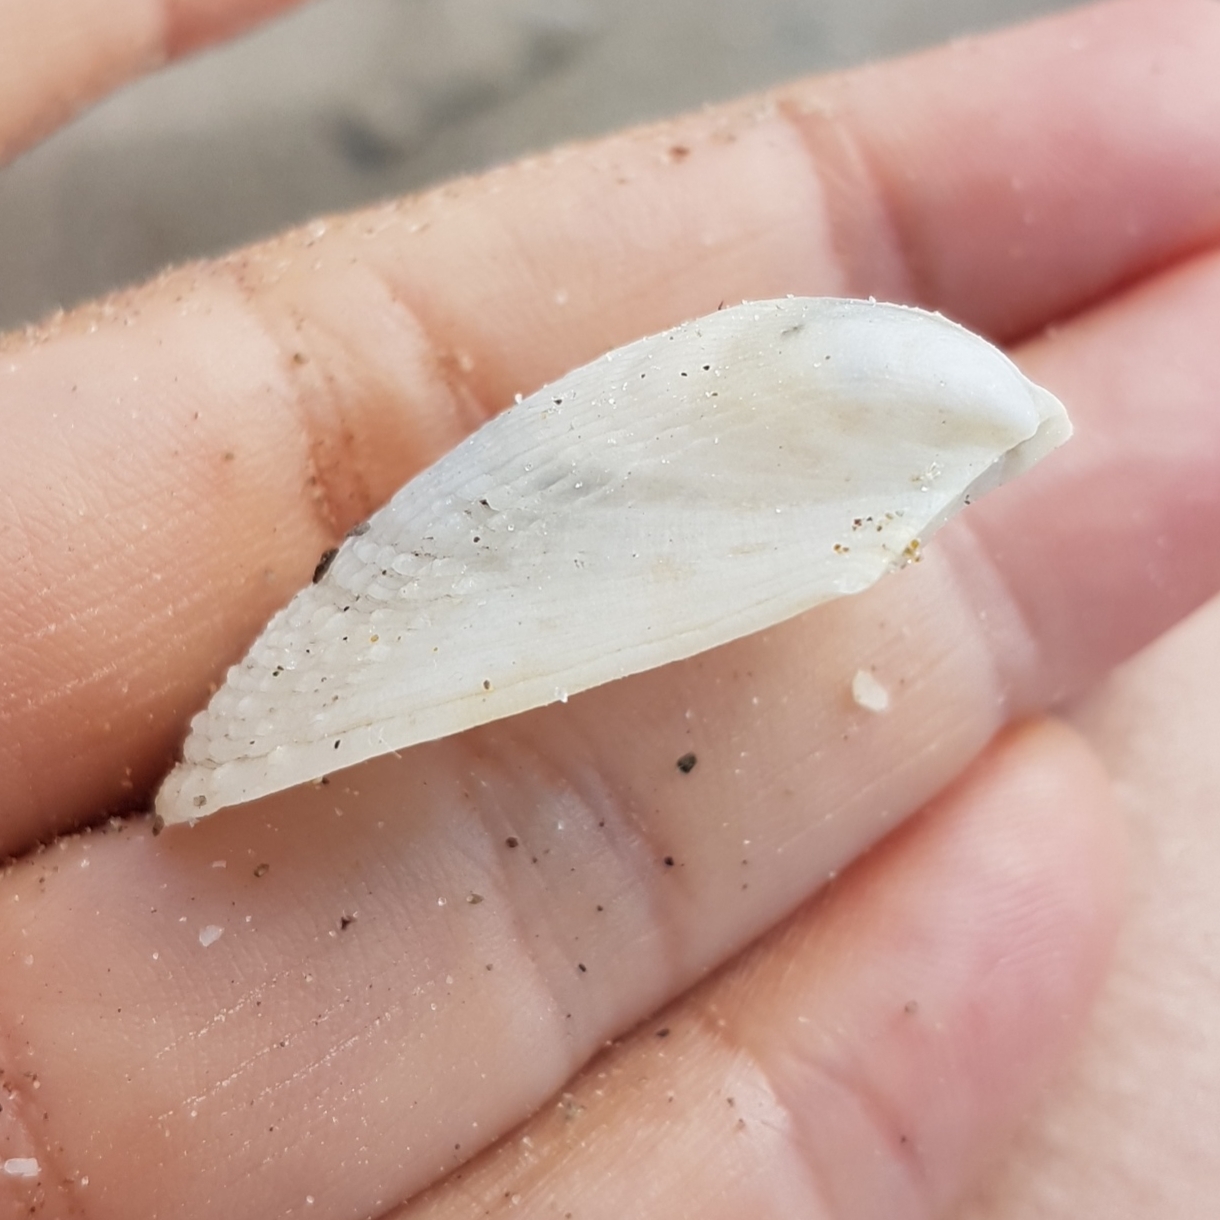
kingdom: Animalia
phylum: Mollusca
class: Bivalvia
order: Limida
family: Limidae
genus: Limaria
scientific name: Limaria tuberculata
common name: File shell
